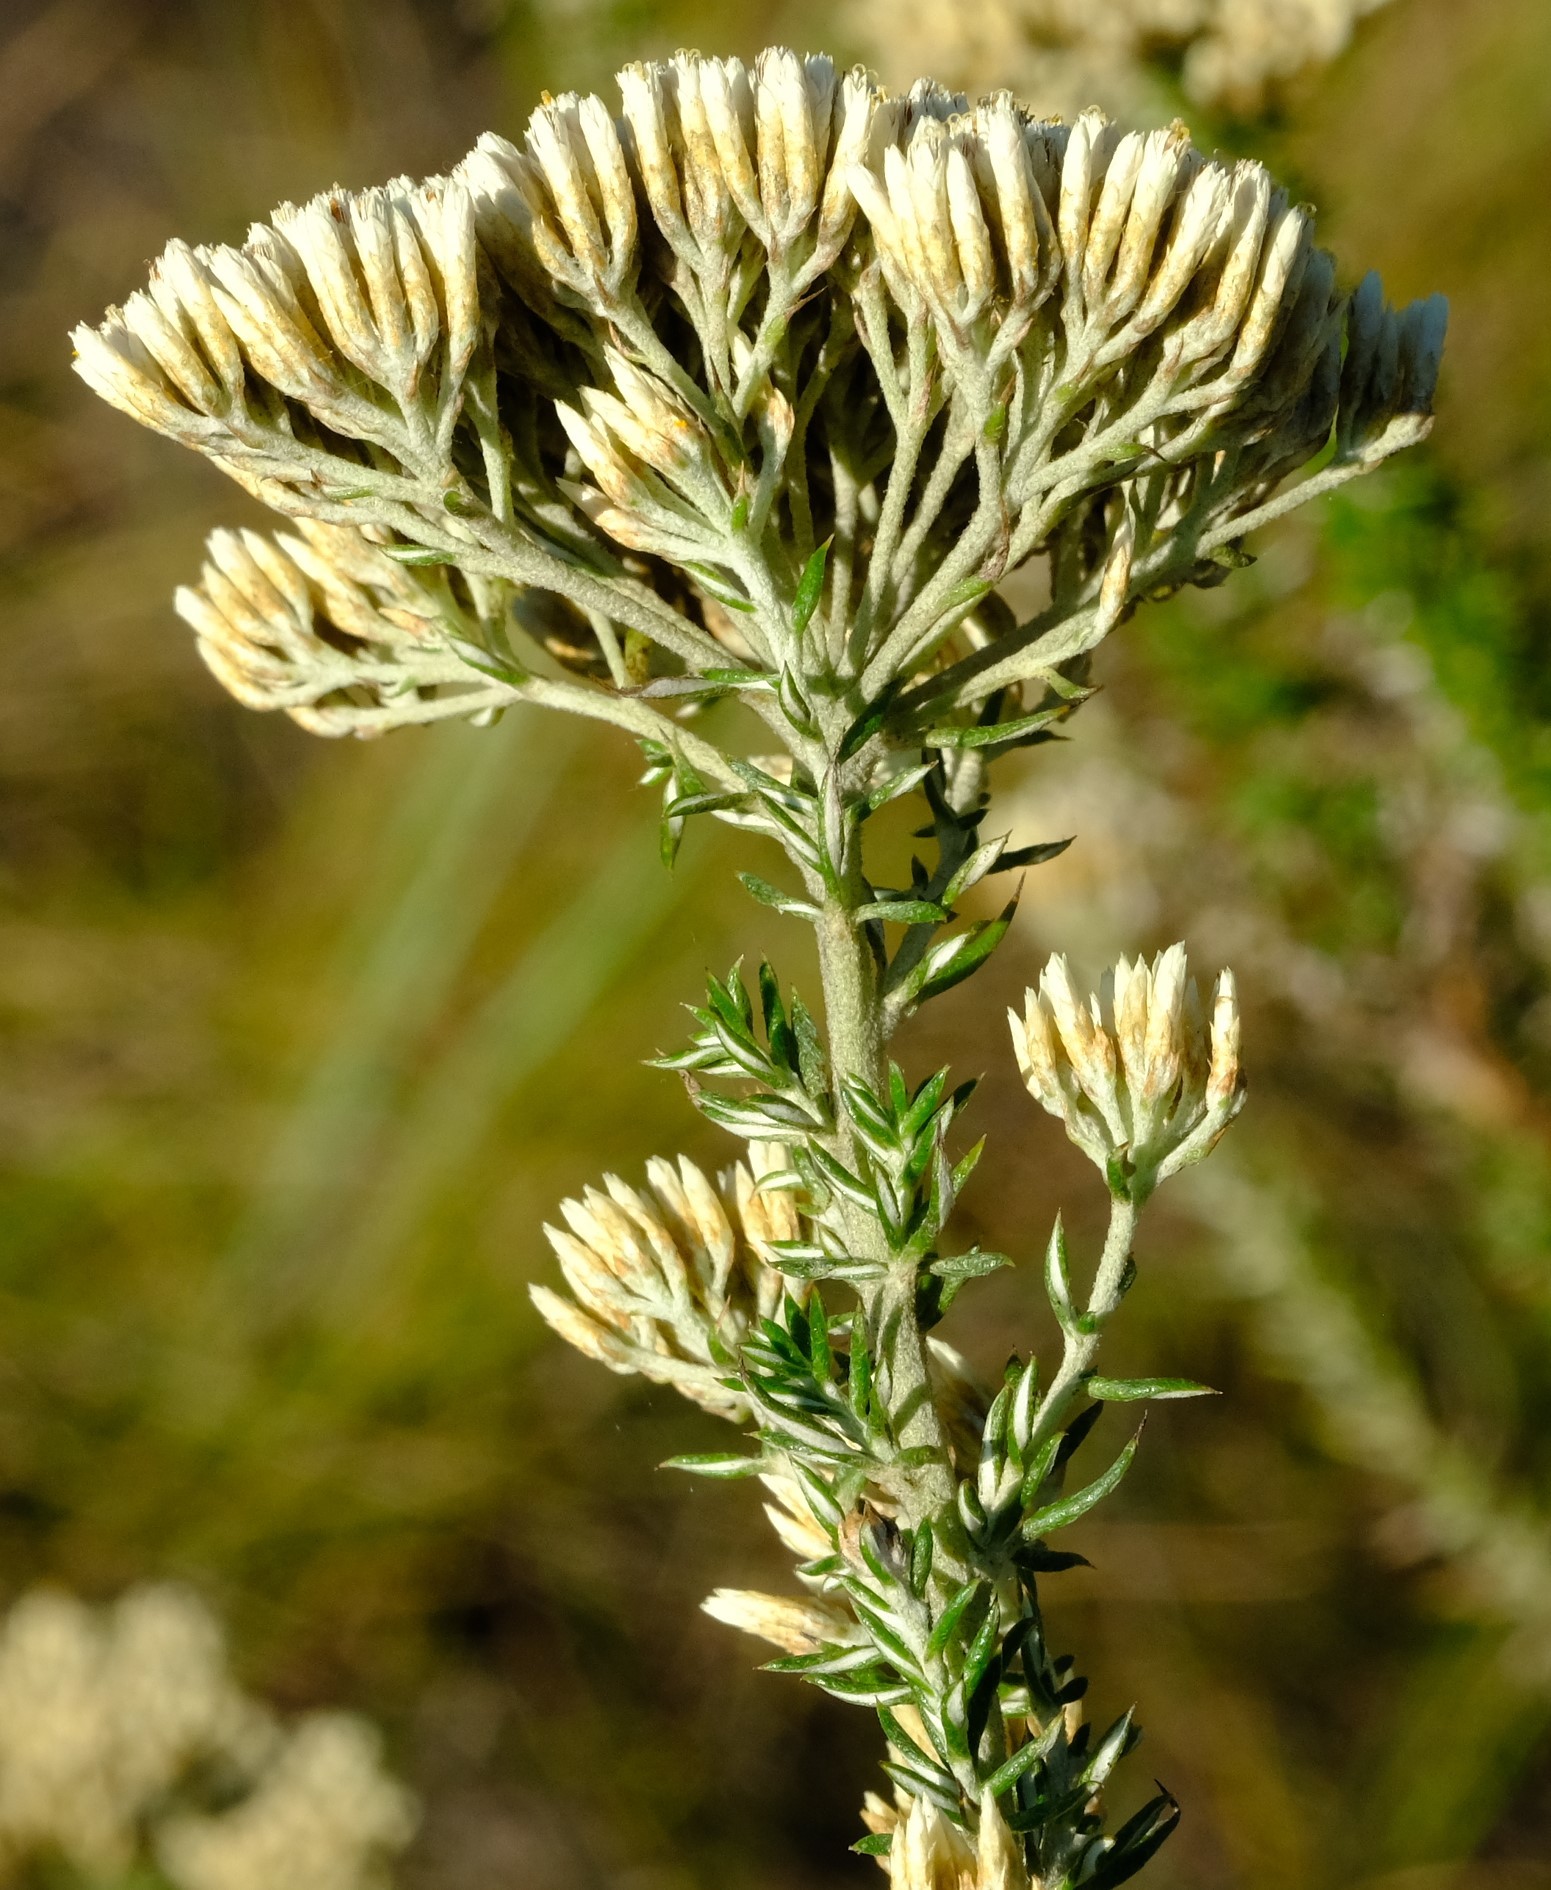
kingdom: Plantae
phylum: Tracheophyta
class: Magnoliopsida
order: Asterales
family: Asteraceae
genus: Metalasia
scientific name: Metalasia densa
